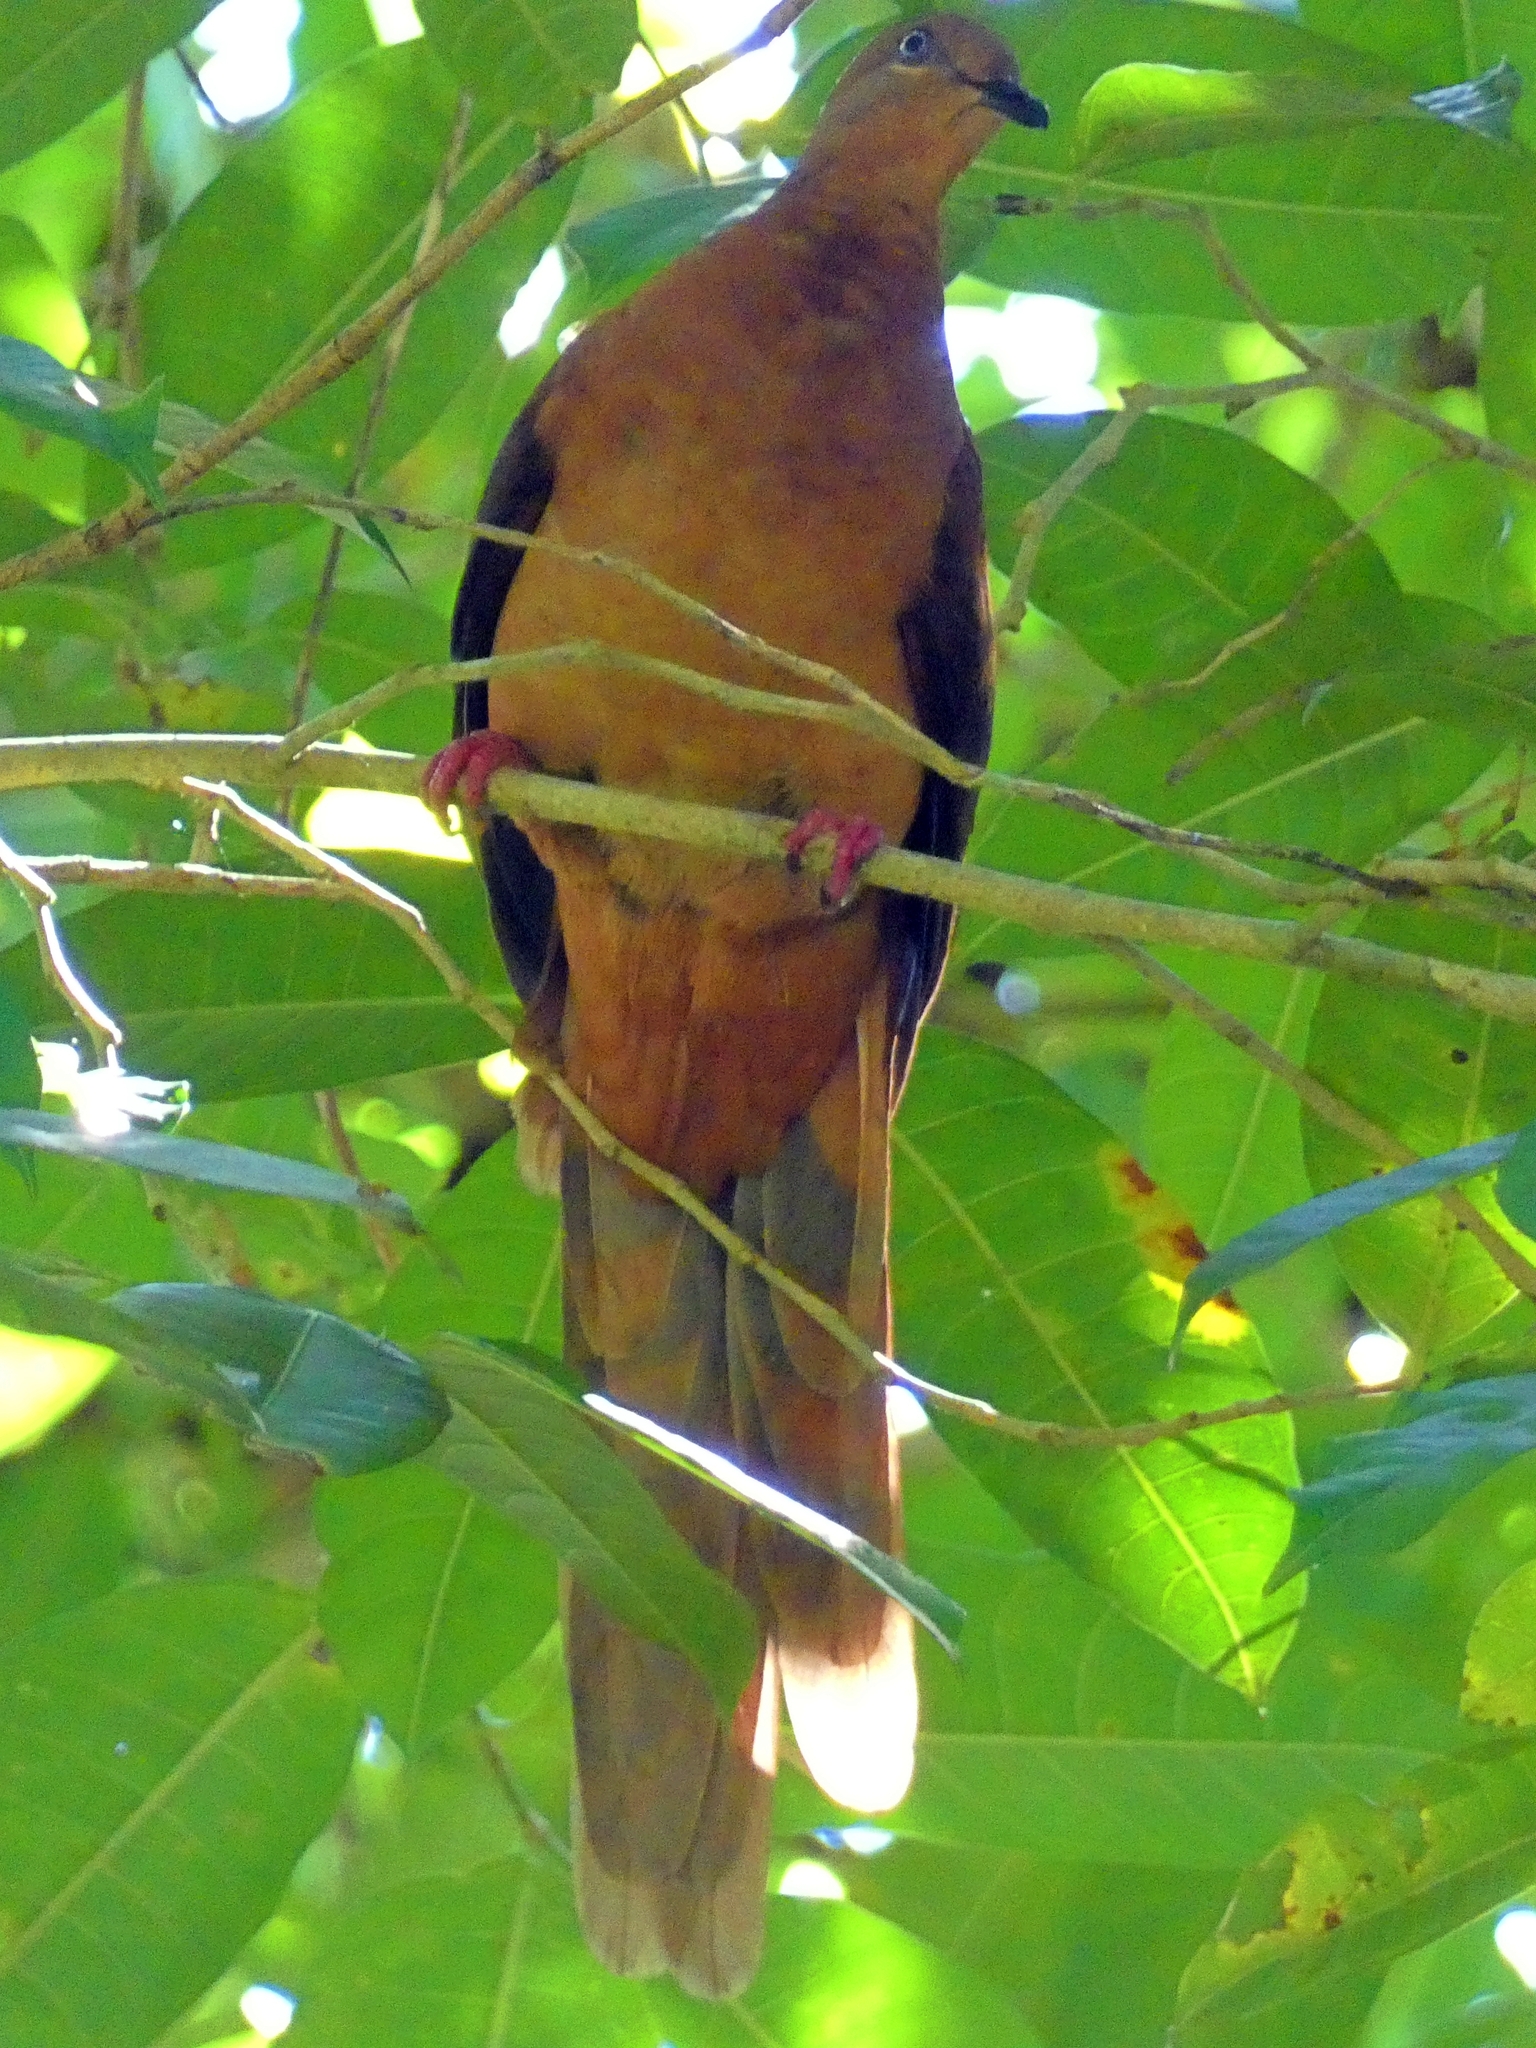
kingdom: Animalia
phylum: Chordata
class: Aves
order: Columbiformes
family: Columbidae
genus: Macropygia
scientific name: Macropygia phasianella
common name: Brown cuckoo-dove
